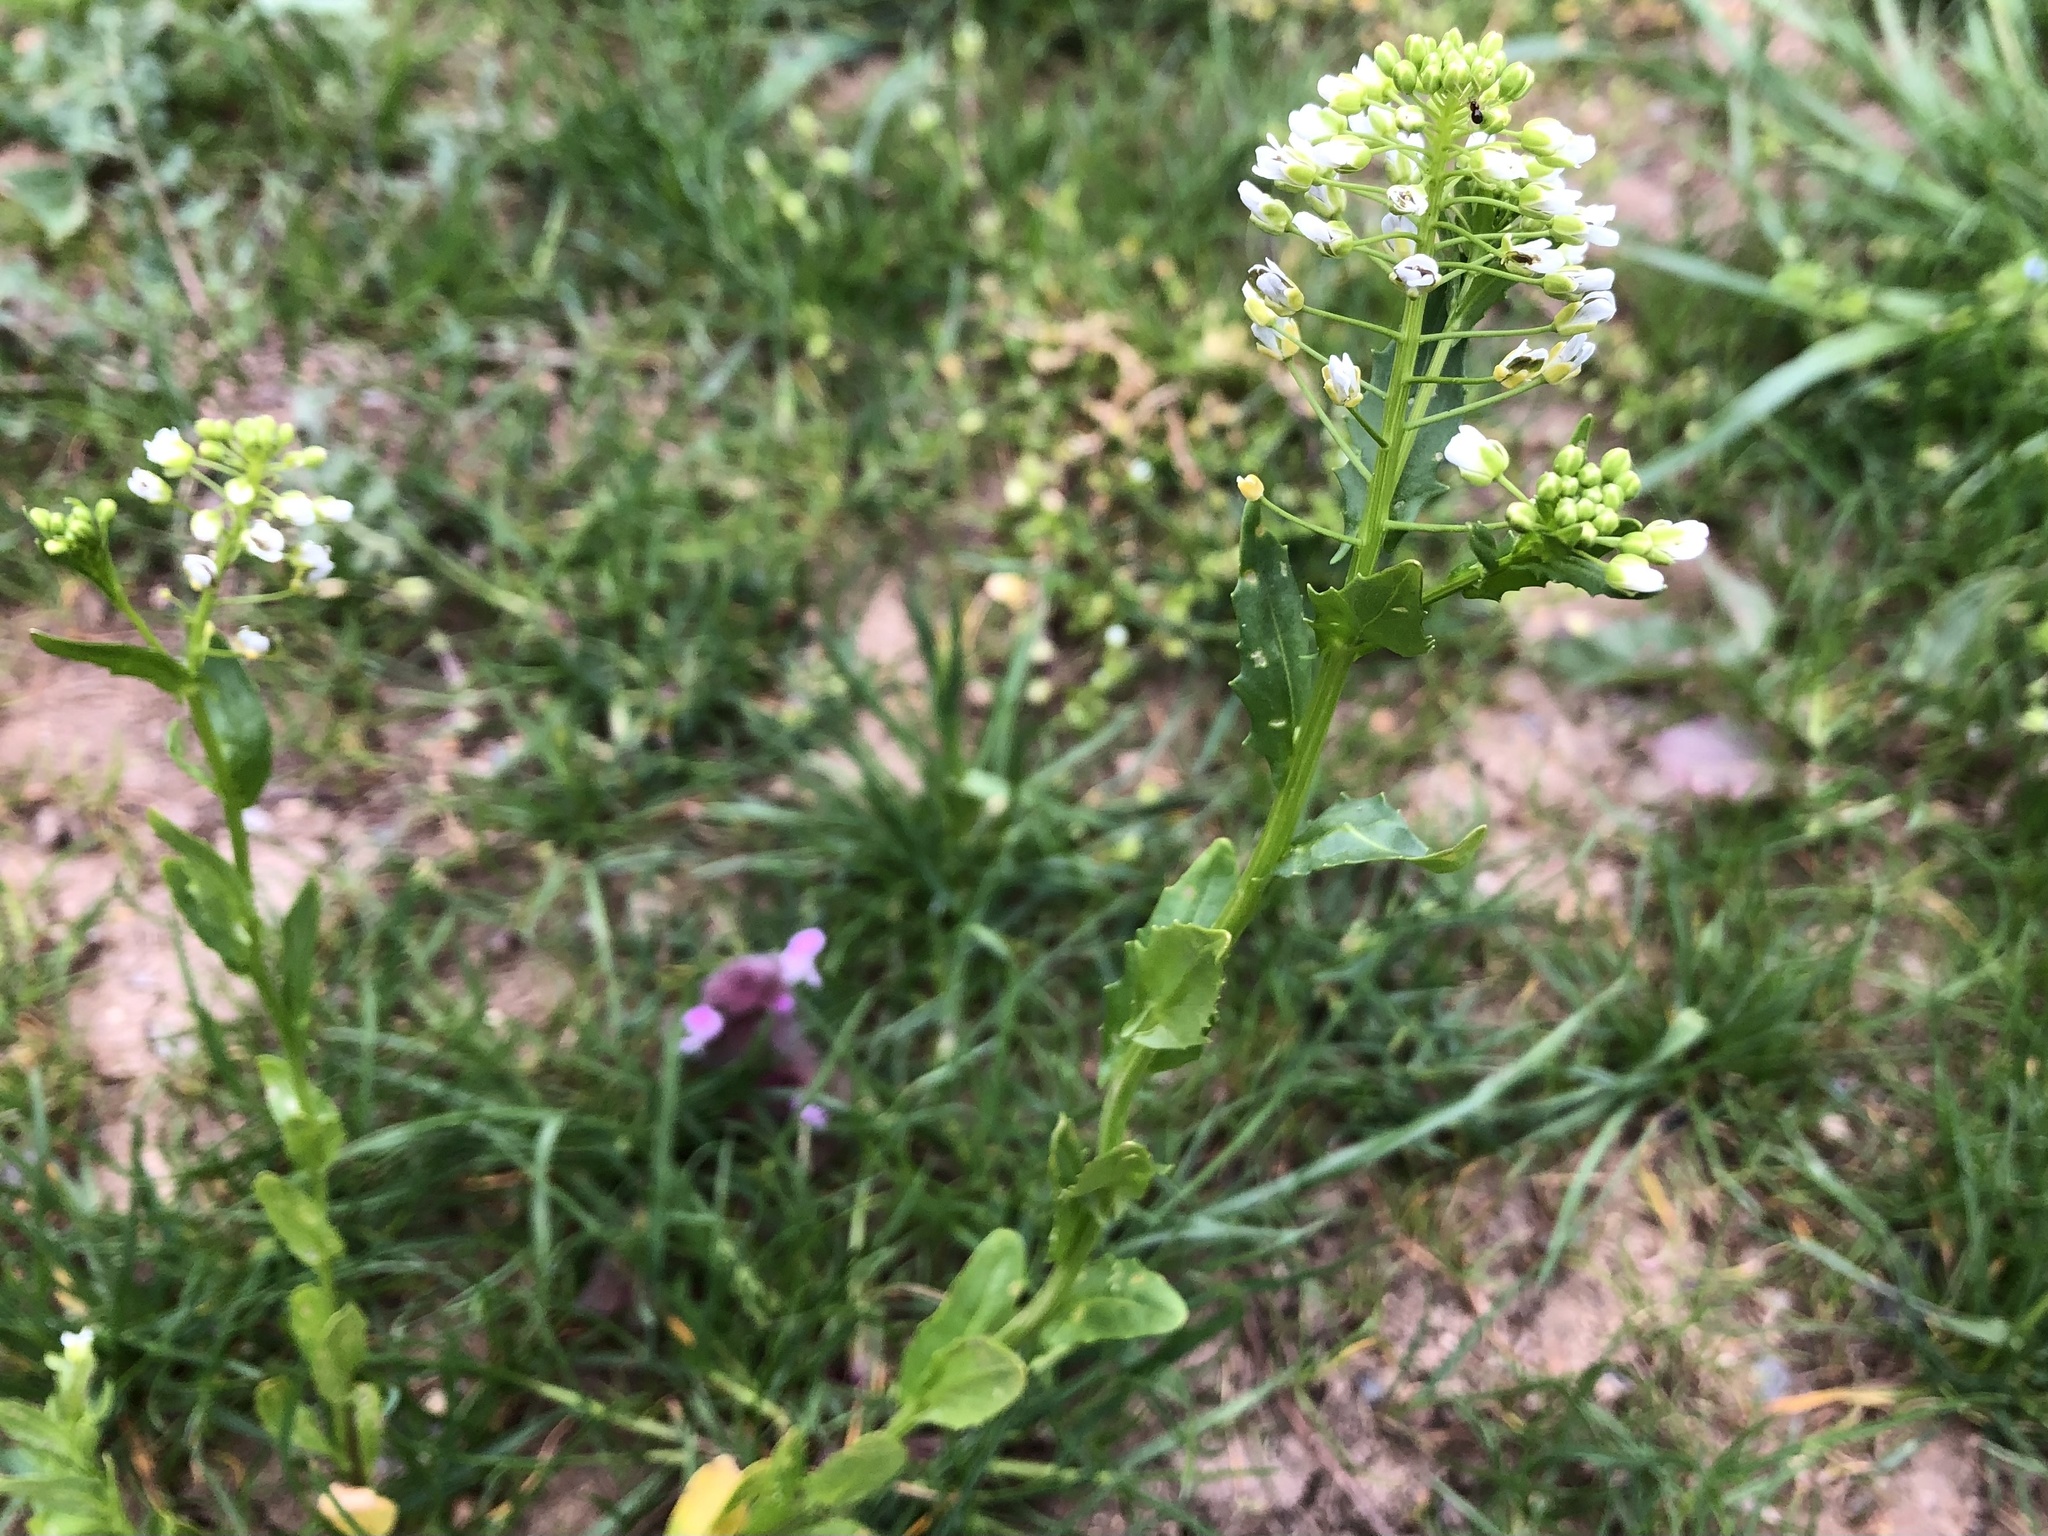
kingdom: Plantae
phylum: Tracheophyta
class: Magnoliopsida
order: Brassicales
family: Brassicaceae
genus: Thlaspi
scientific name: Thlaspi arvense
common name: Field pennycress
